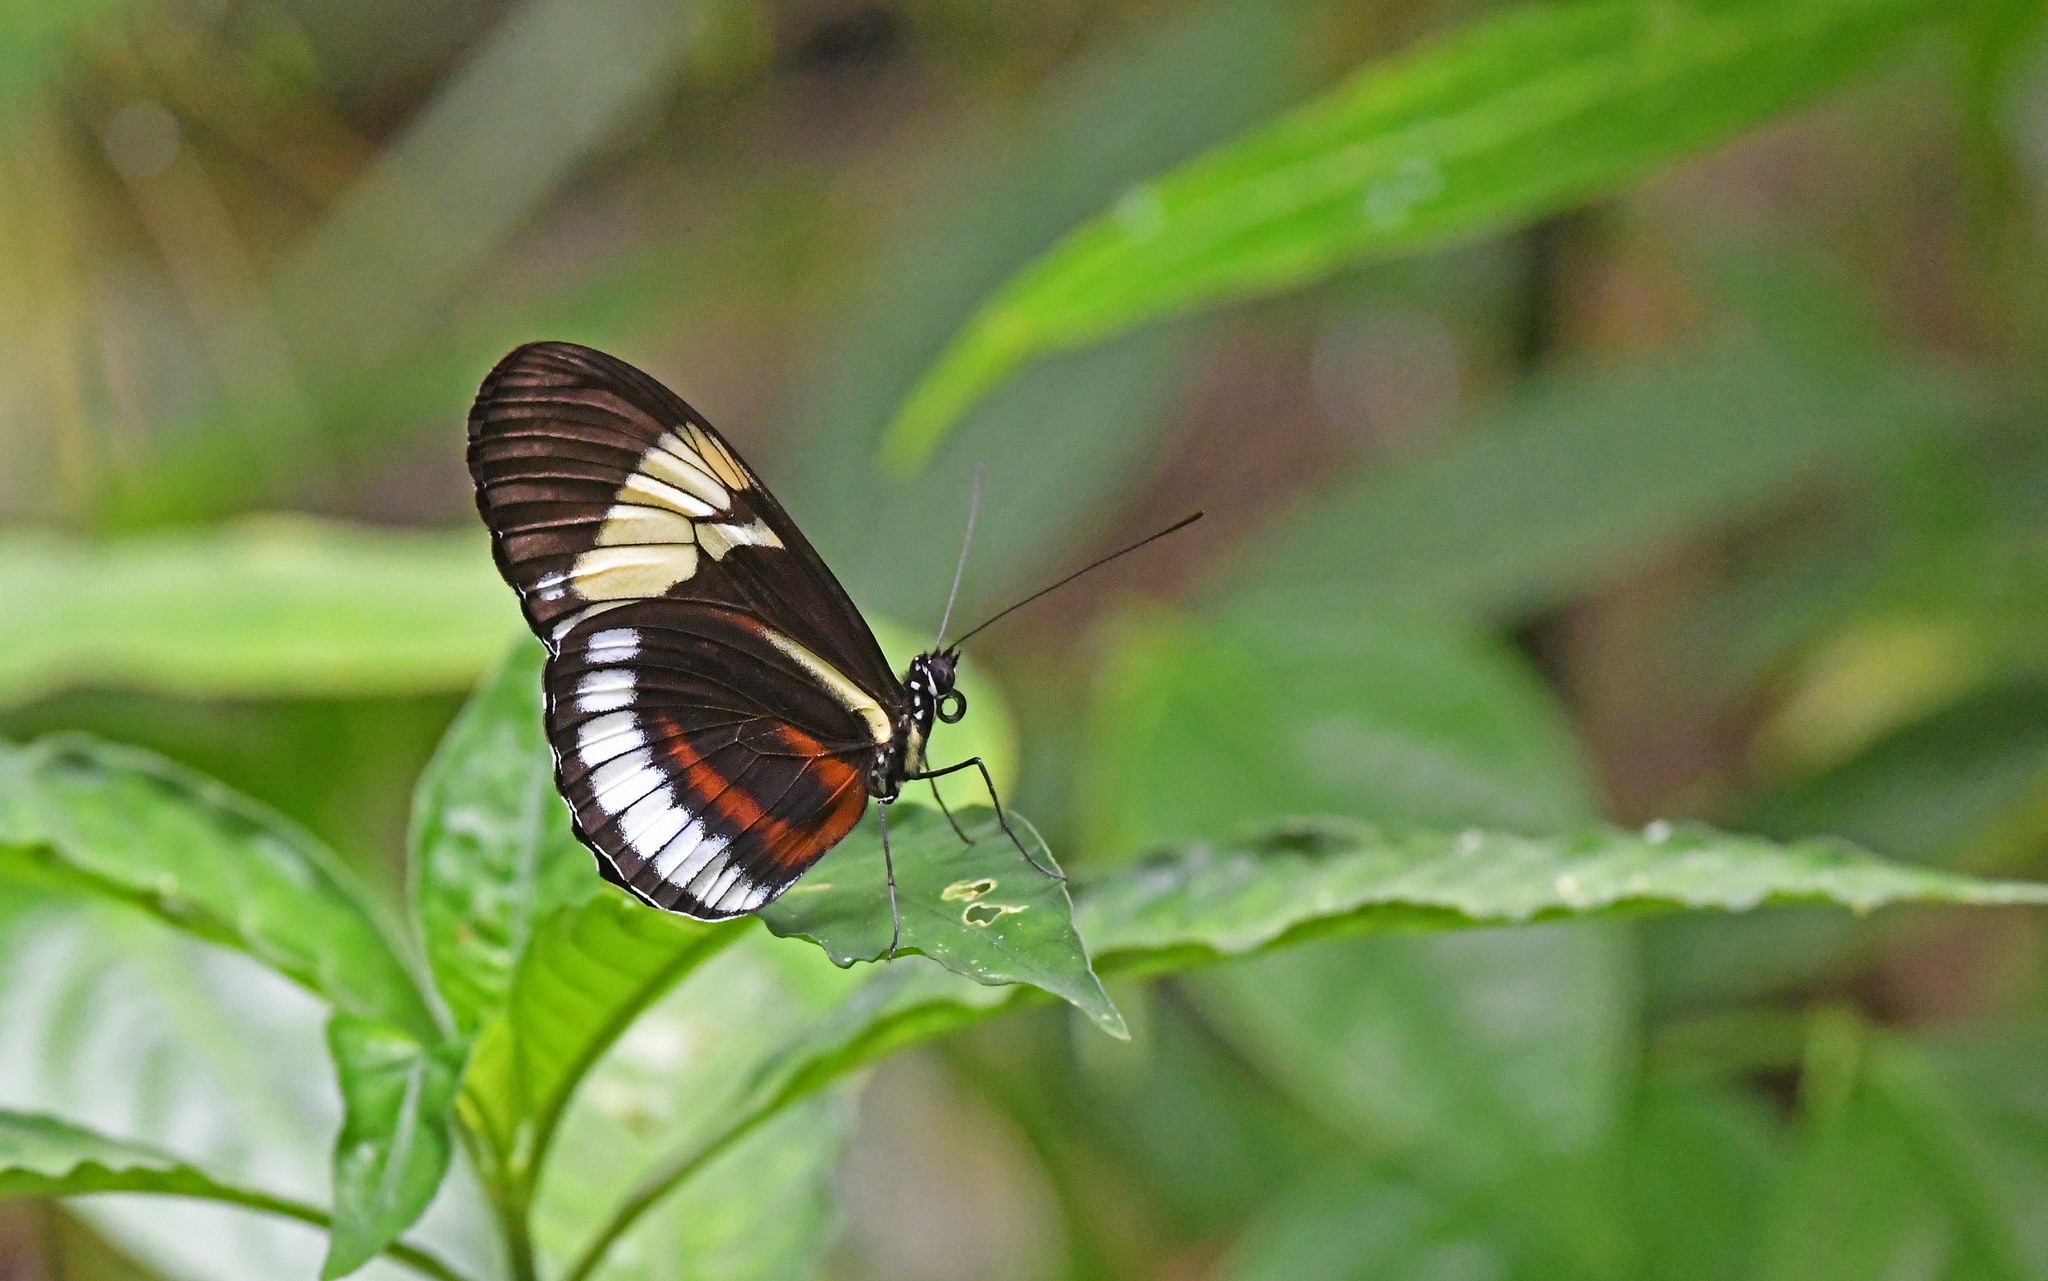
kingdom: Animalia
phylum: Arthropoda
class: Insecta
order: Lepidoptera
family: Nymphalidae
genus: Heliconius
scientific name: Heliconius cydno
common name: Cydno longwing
